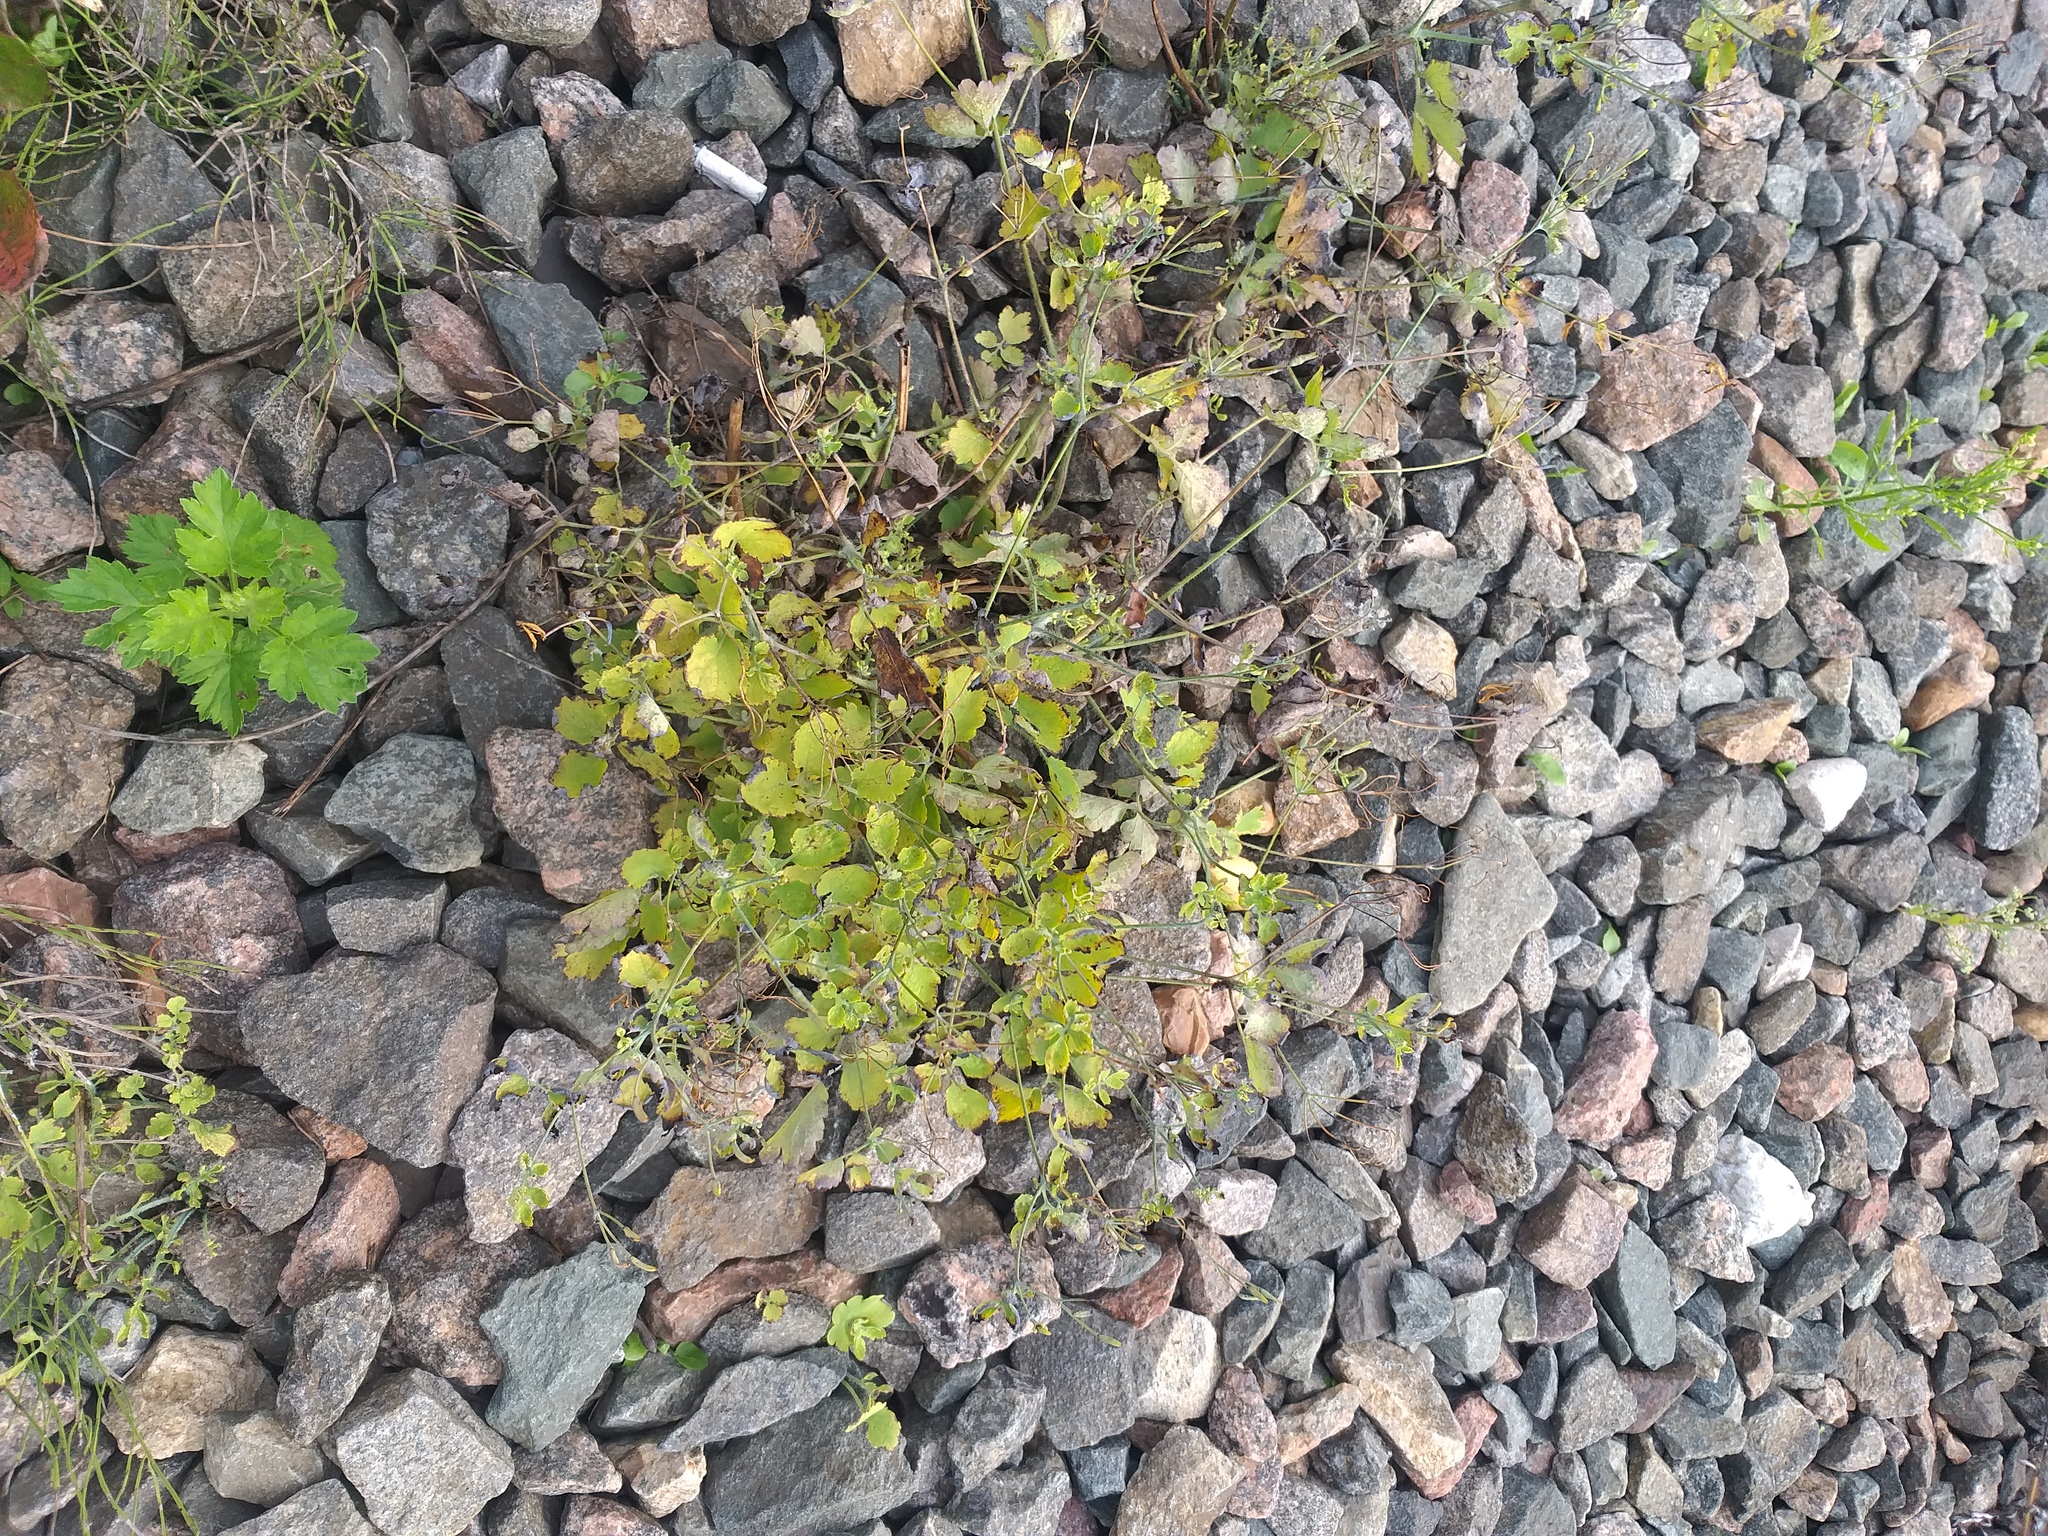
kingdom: Plantae
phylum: Tracheophyta
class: Magnoliopsida
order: Ranunculales
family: Papaveraceae
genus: Chelidonium
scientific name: Chelidonium majus
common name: Greater celandine
